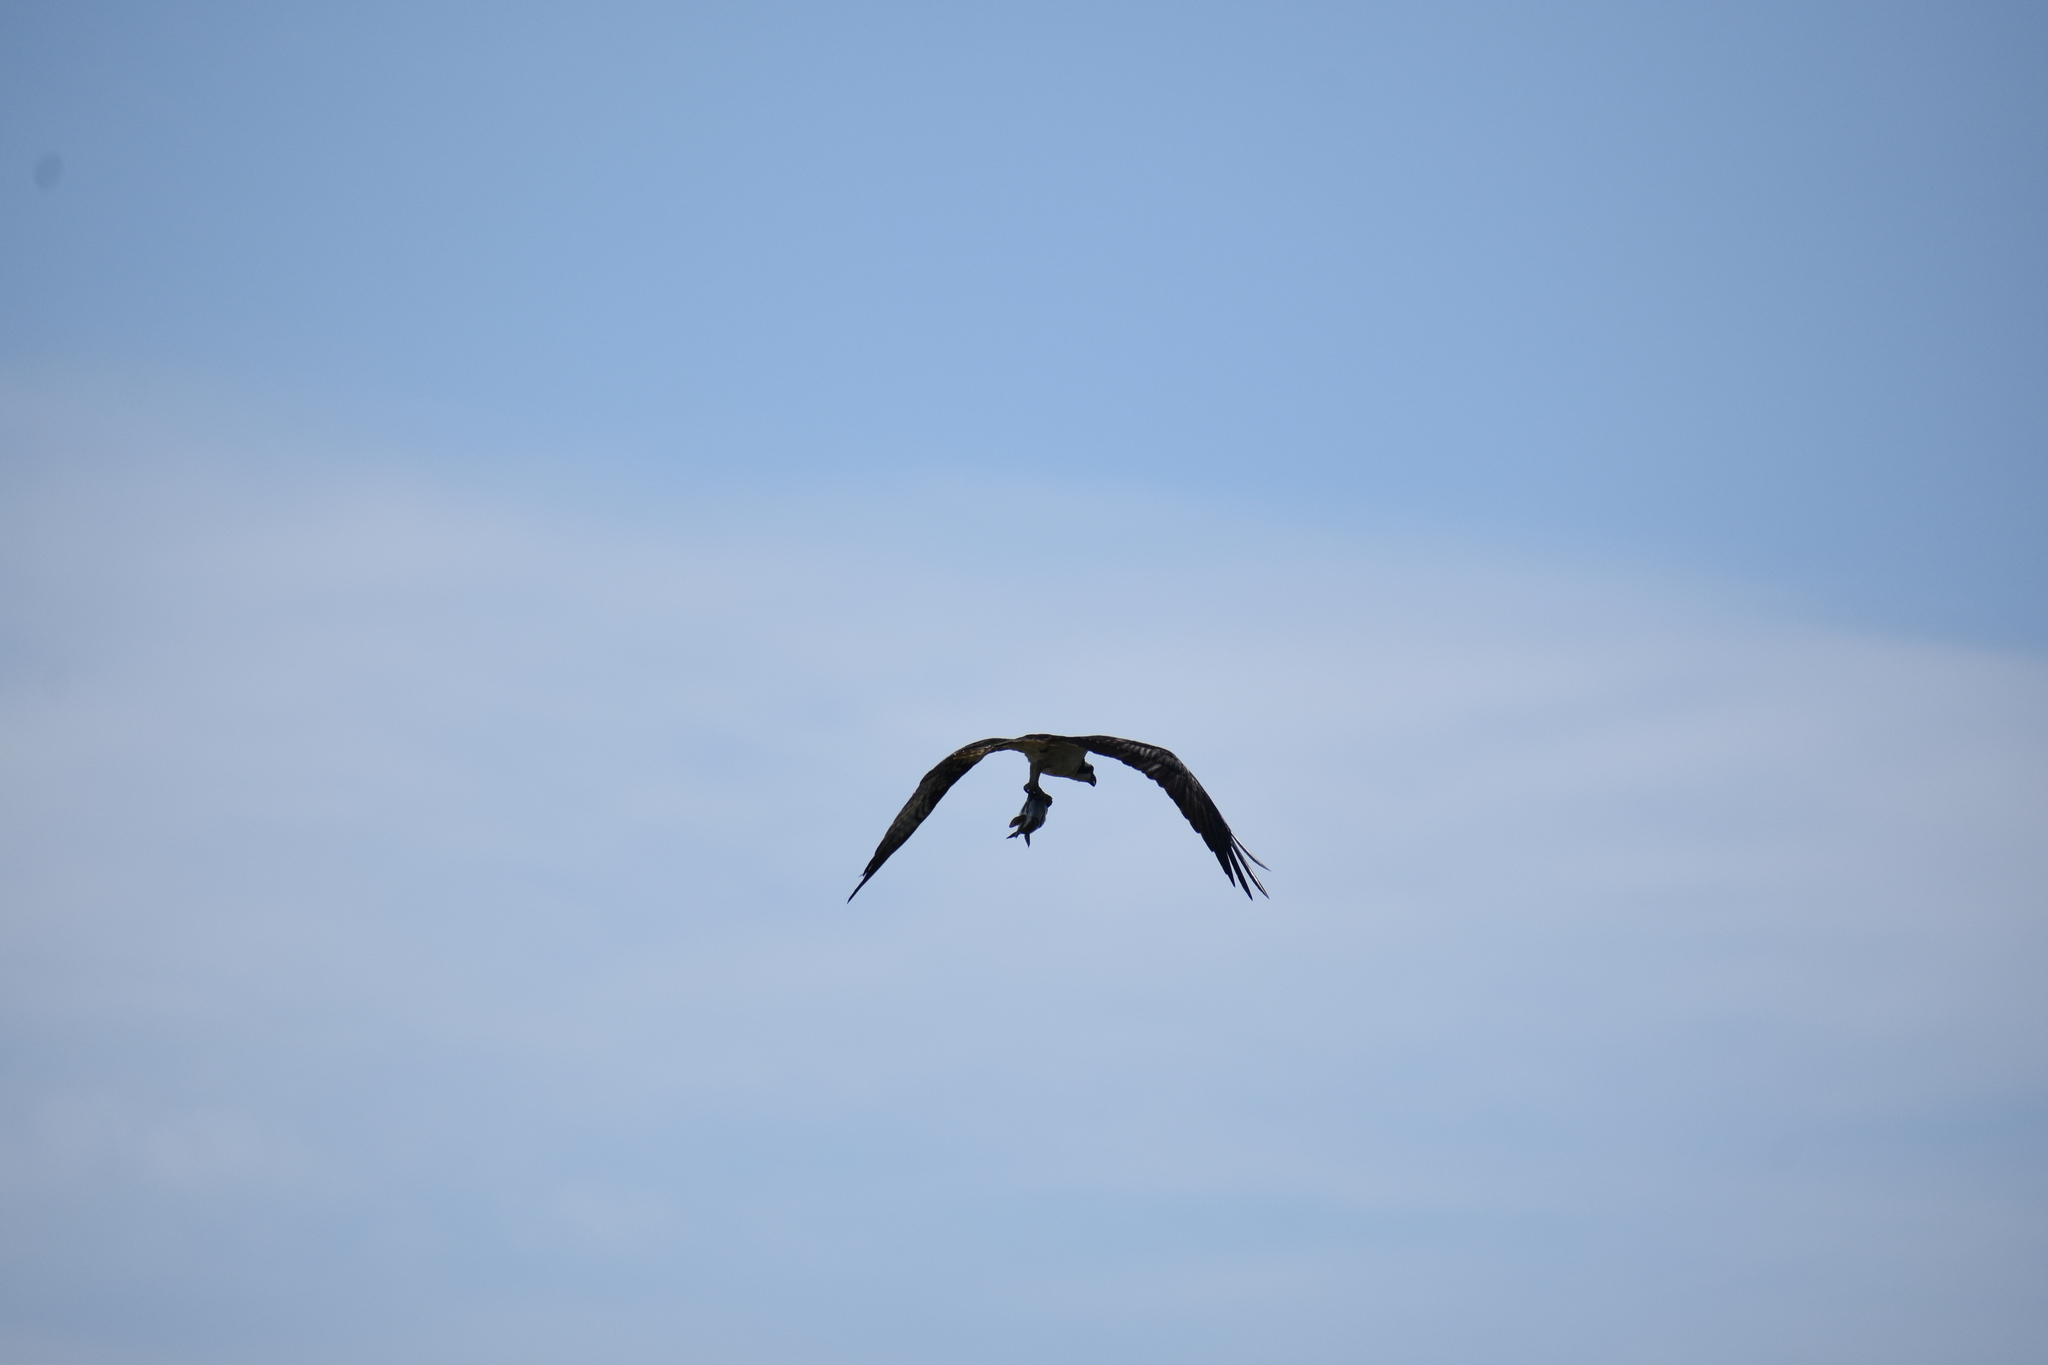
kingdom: Animalia
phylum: Chordata
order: Perciformes
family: Sparidae
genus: Stenotomus
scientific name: Stenotomus chrysops
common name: Scup
